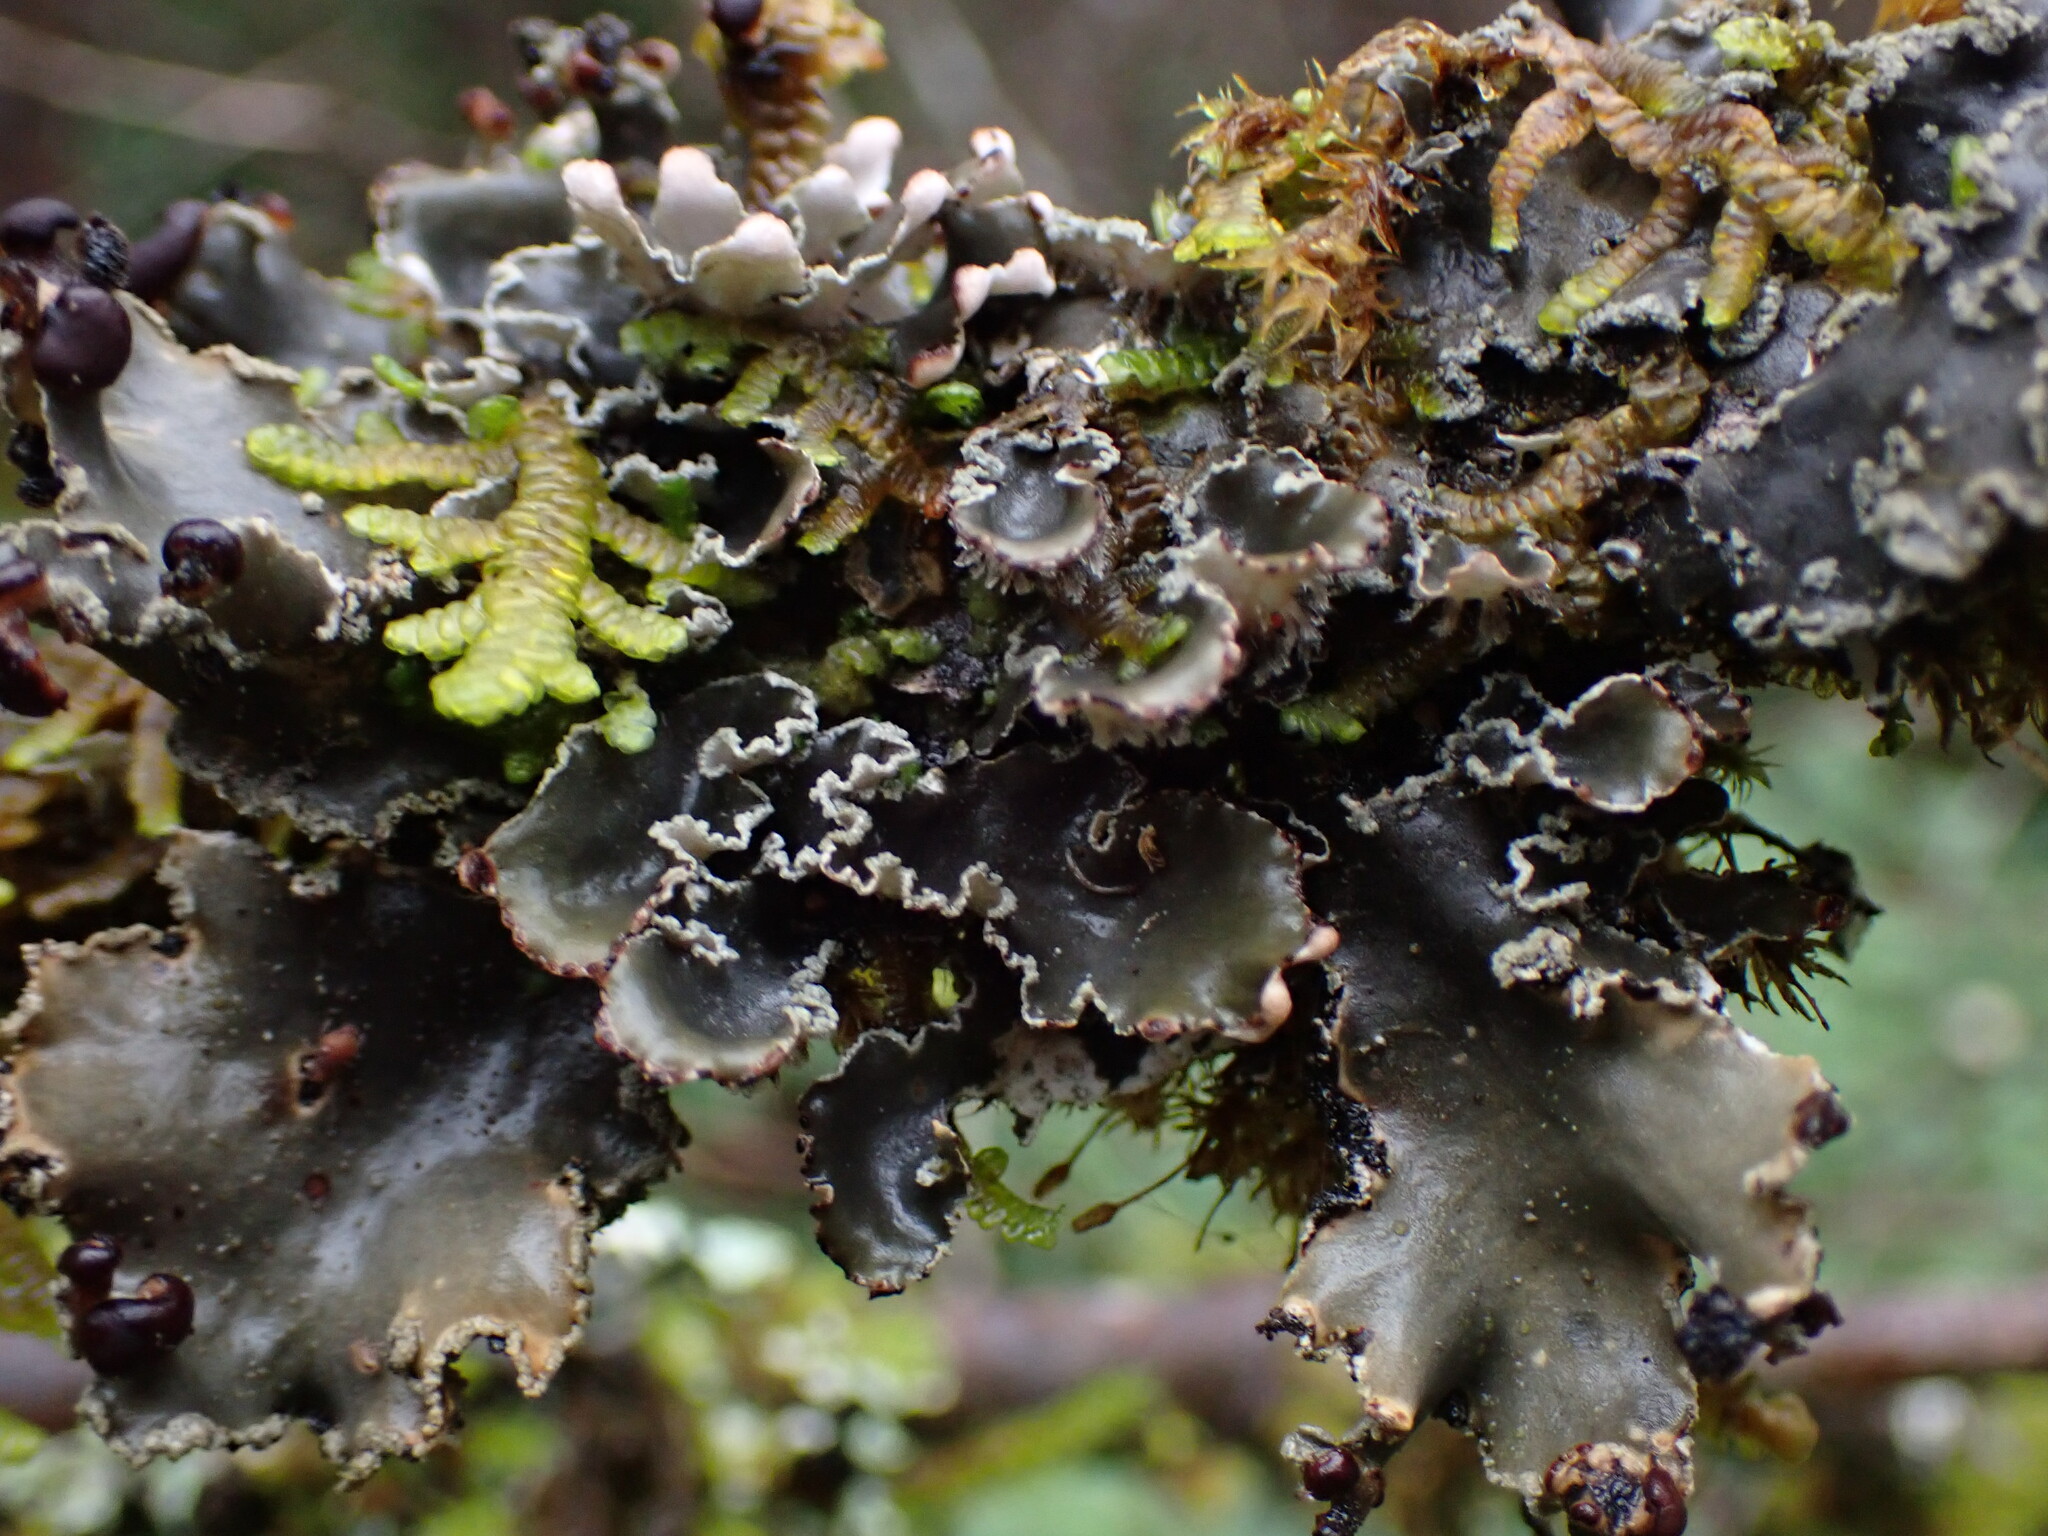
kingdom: Fungi
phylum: Ascomycota
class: Lecanoromycetes
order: Peltigerales
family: Peltigeraceae
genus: Peltigera
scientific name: Peltigera collina
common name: Gritty tree pelt lichen
